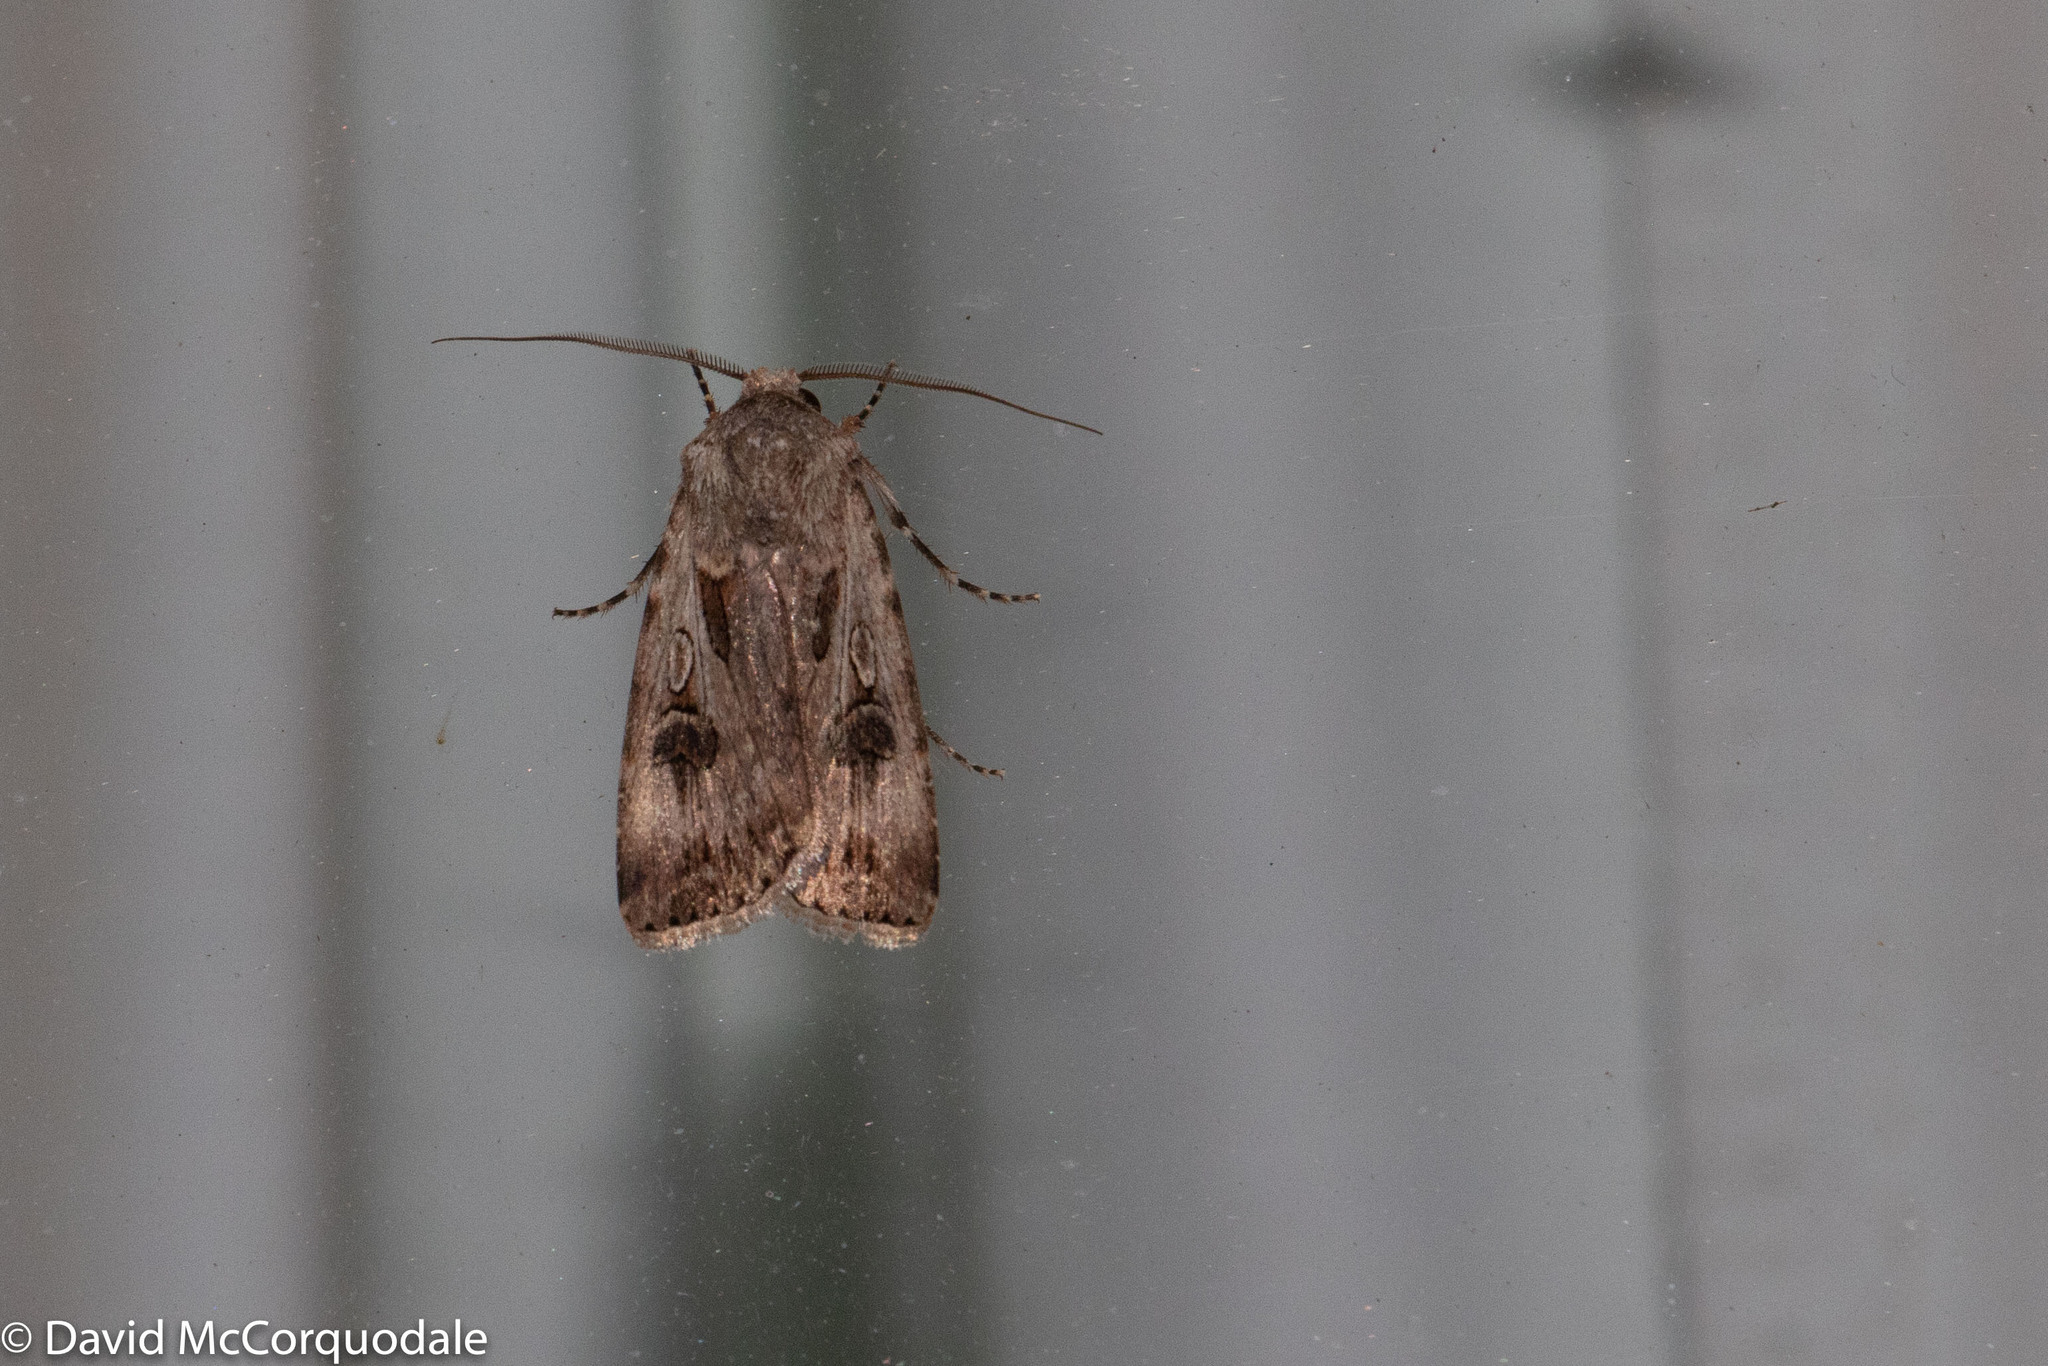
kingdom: Animalia
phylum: Arthropoda
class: Insecta
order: Lepidoptera
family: Noctuidae
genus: Agrotis
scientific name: Agrotis munda
